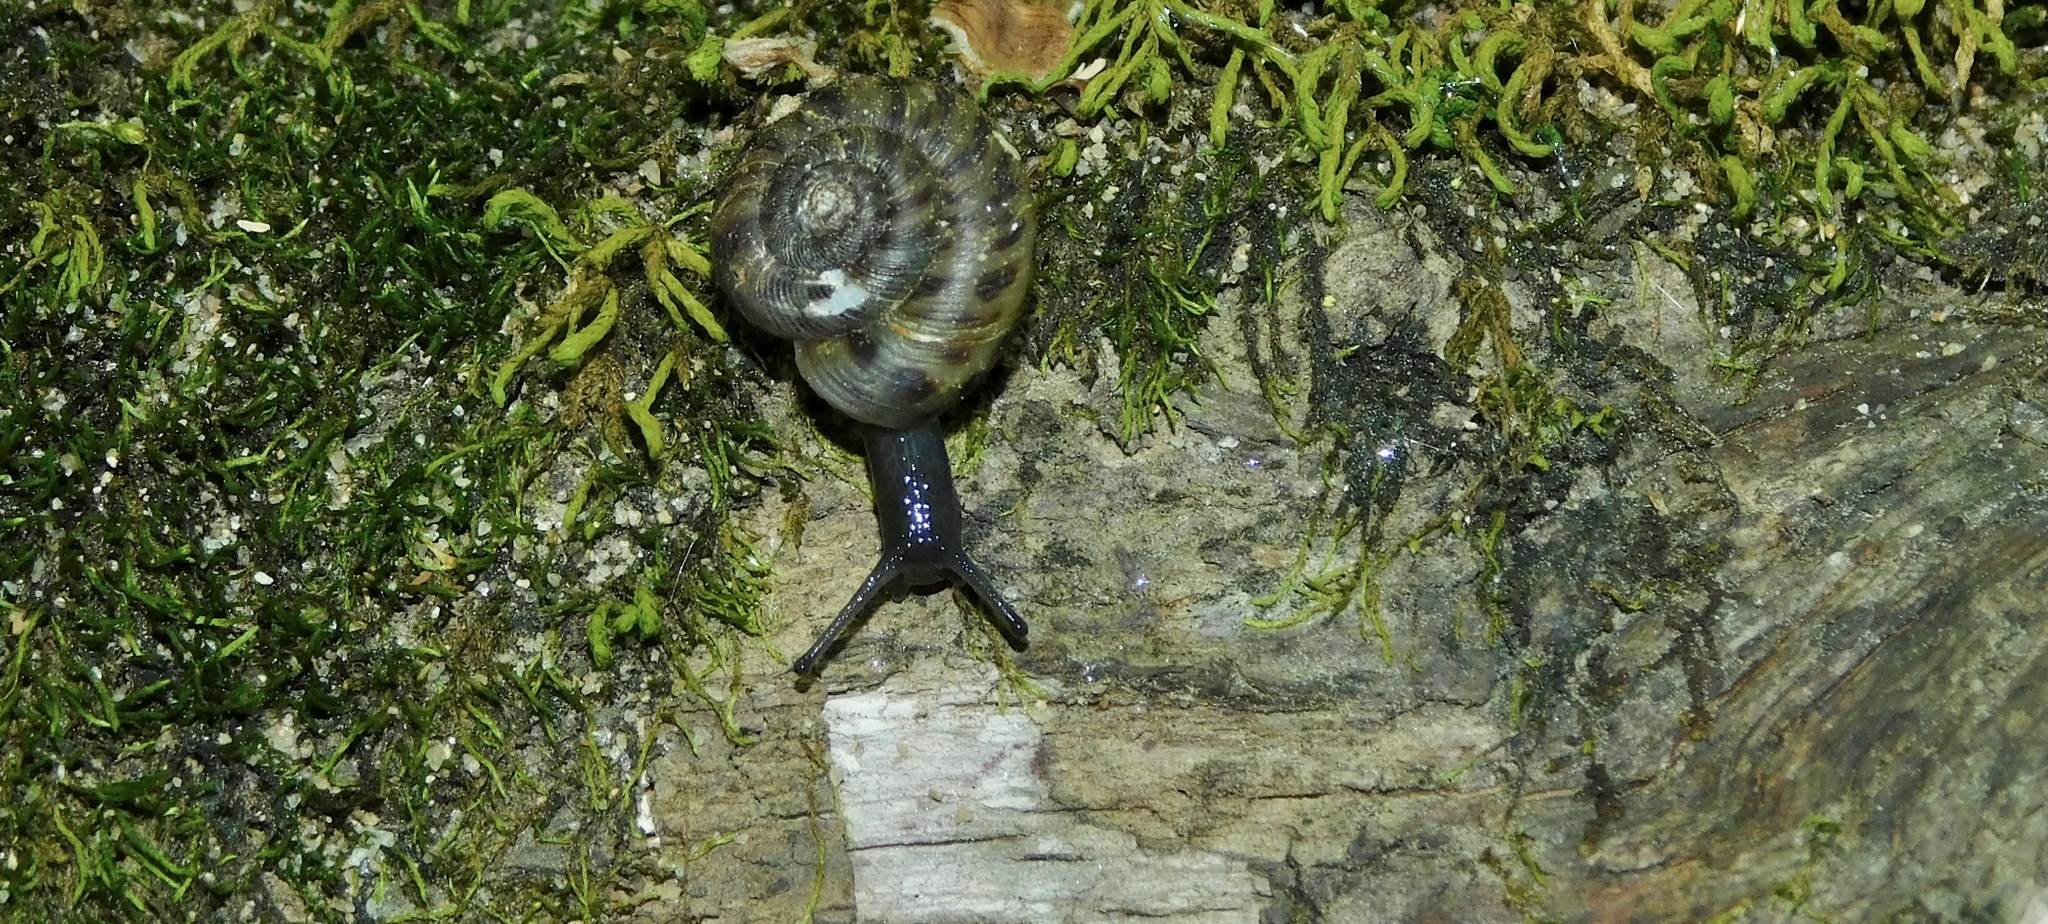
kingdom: Animalia
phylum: Mollusca
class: Gastropoda
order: Stylommatophora
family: Discidae
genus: Anguispira
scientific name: Anguispira alternata
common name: Flamed tigersnail
